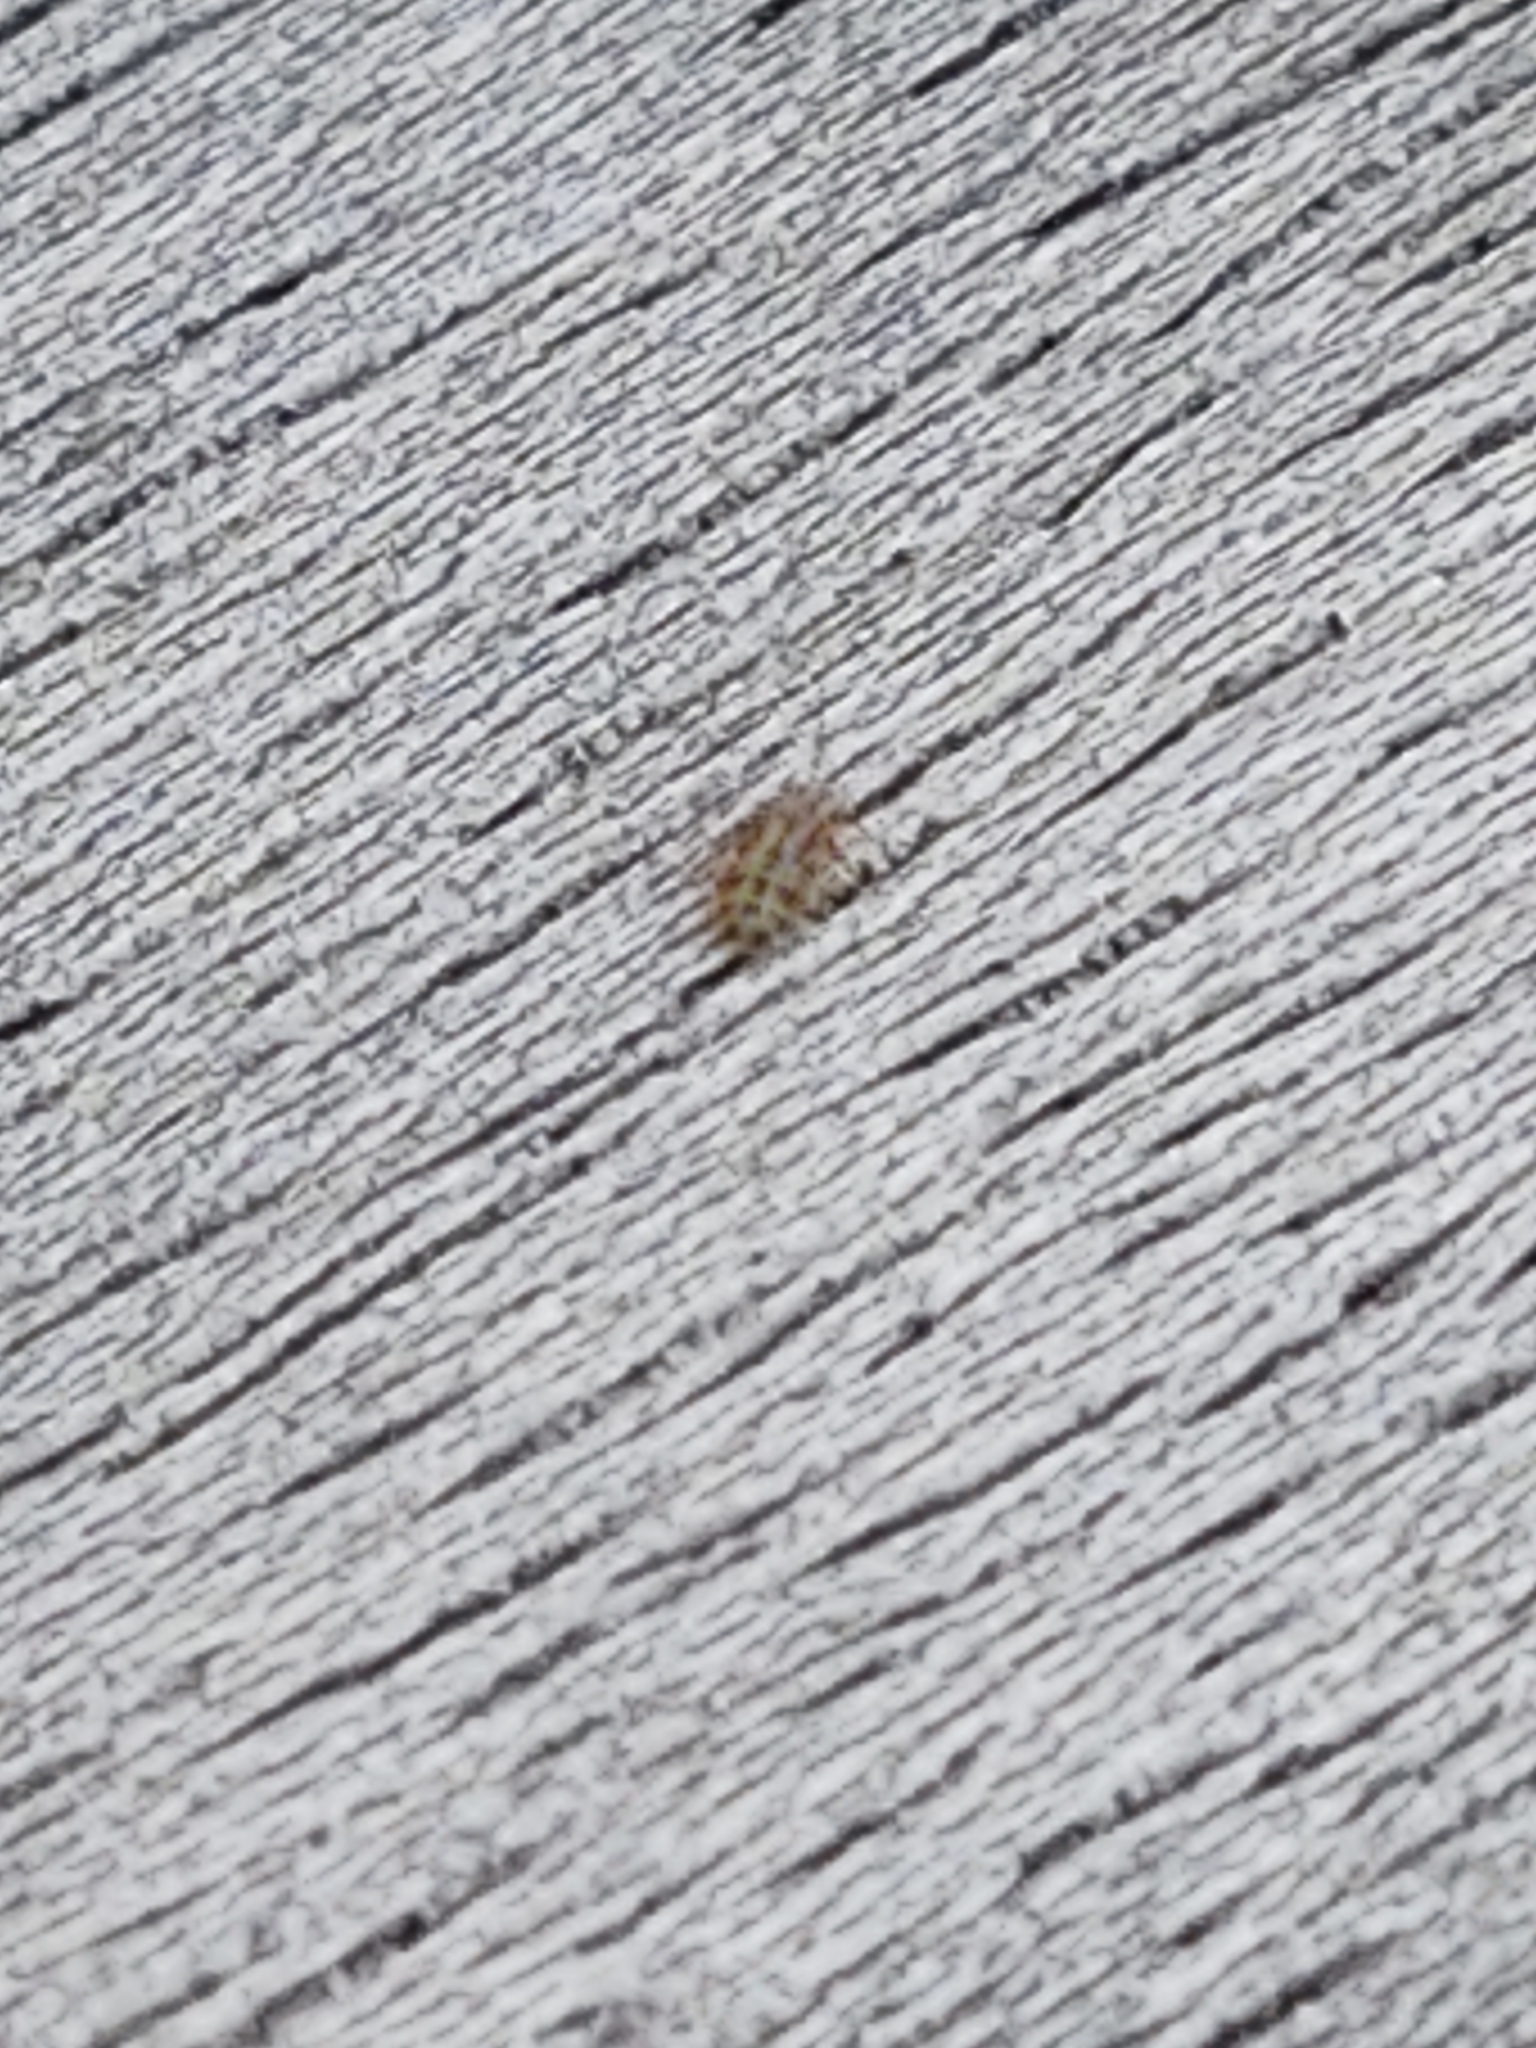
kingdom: Animalia
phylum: Arthropoda
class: Insecta
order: Psocodea
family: Trogiidae
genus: Cerobasis
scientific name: Cerobasis guestfalica
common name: Book lice
